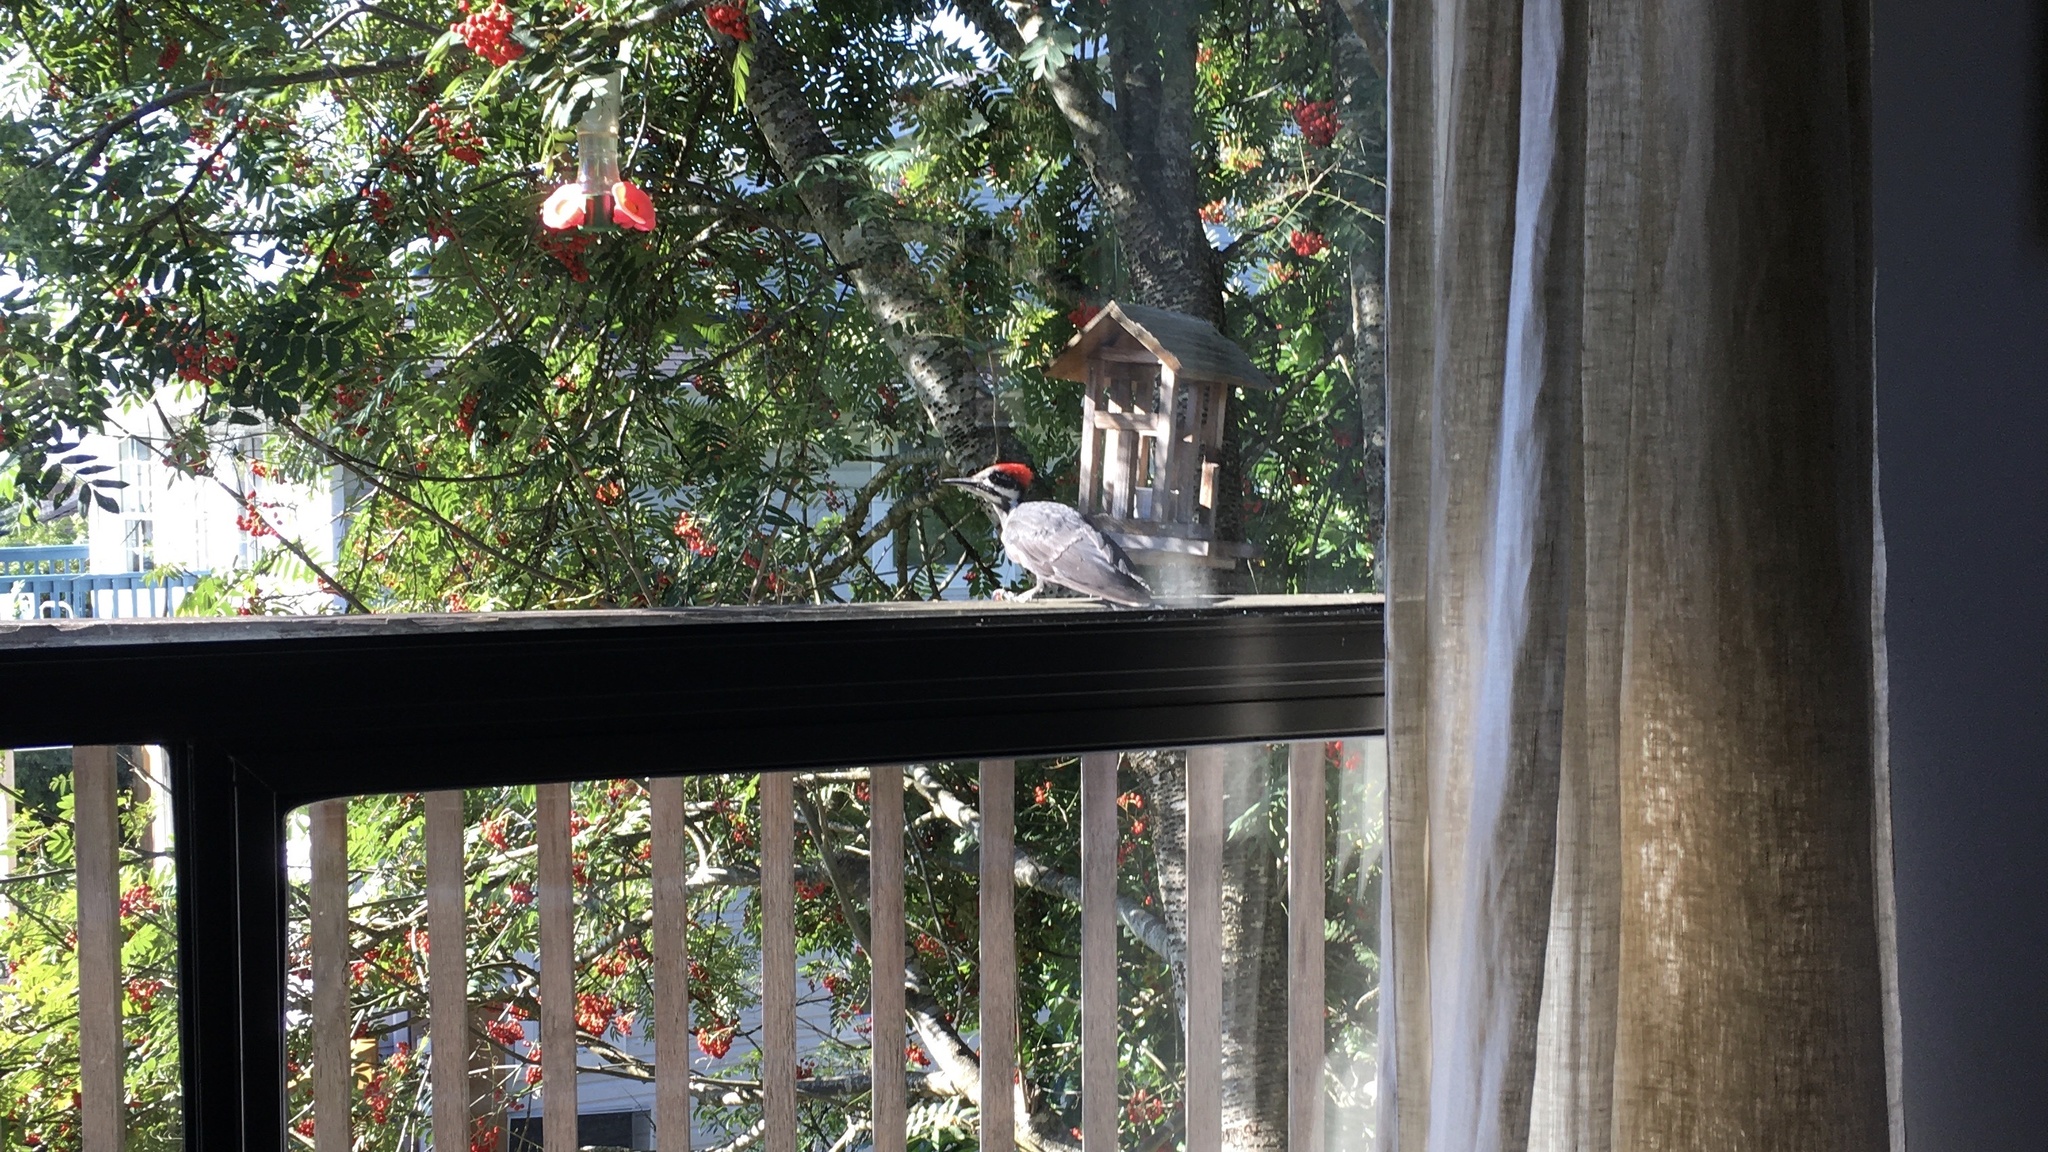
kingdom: Animalia
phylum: Chordata
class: Aves
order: Piciformes
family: Picidae
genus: Dryocopus
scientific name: Dryocopus pileatus
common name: Pileated woodpecker
